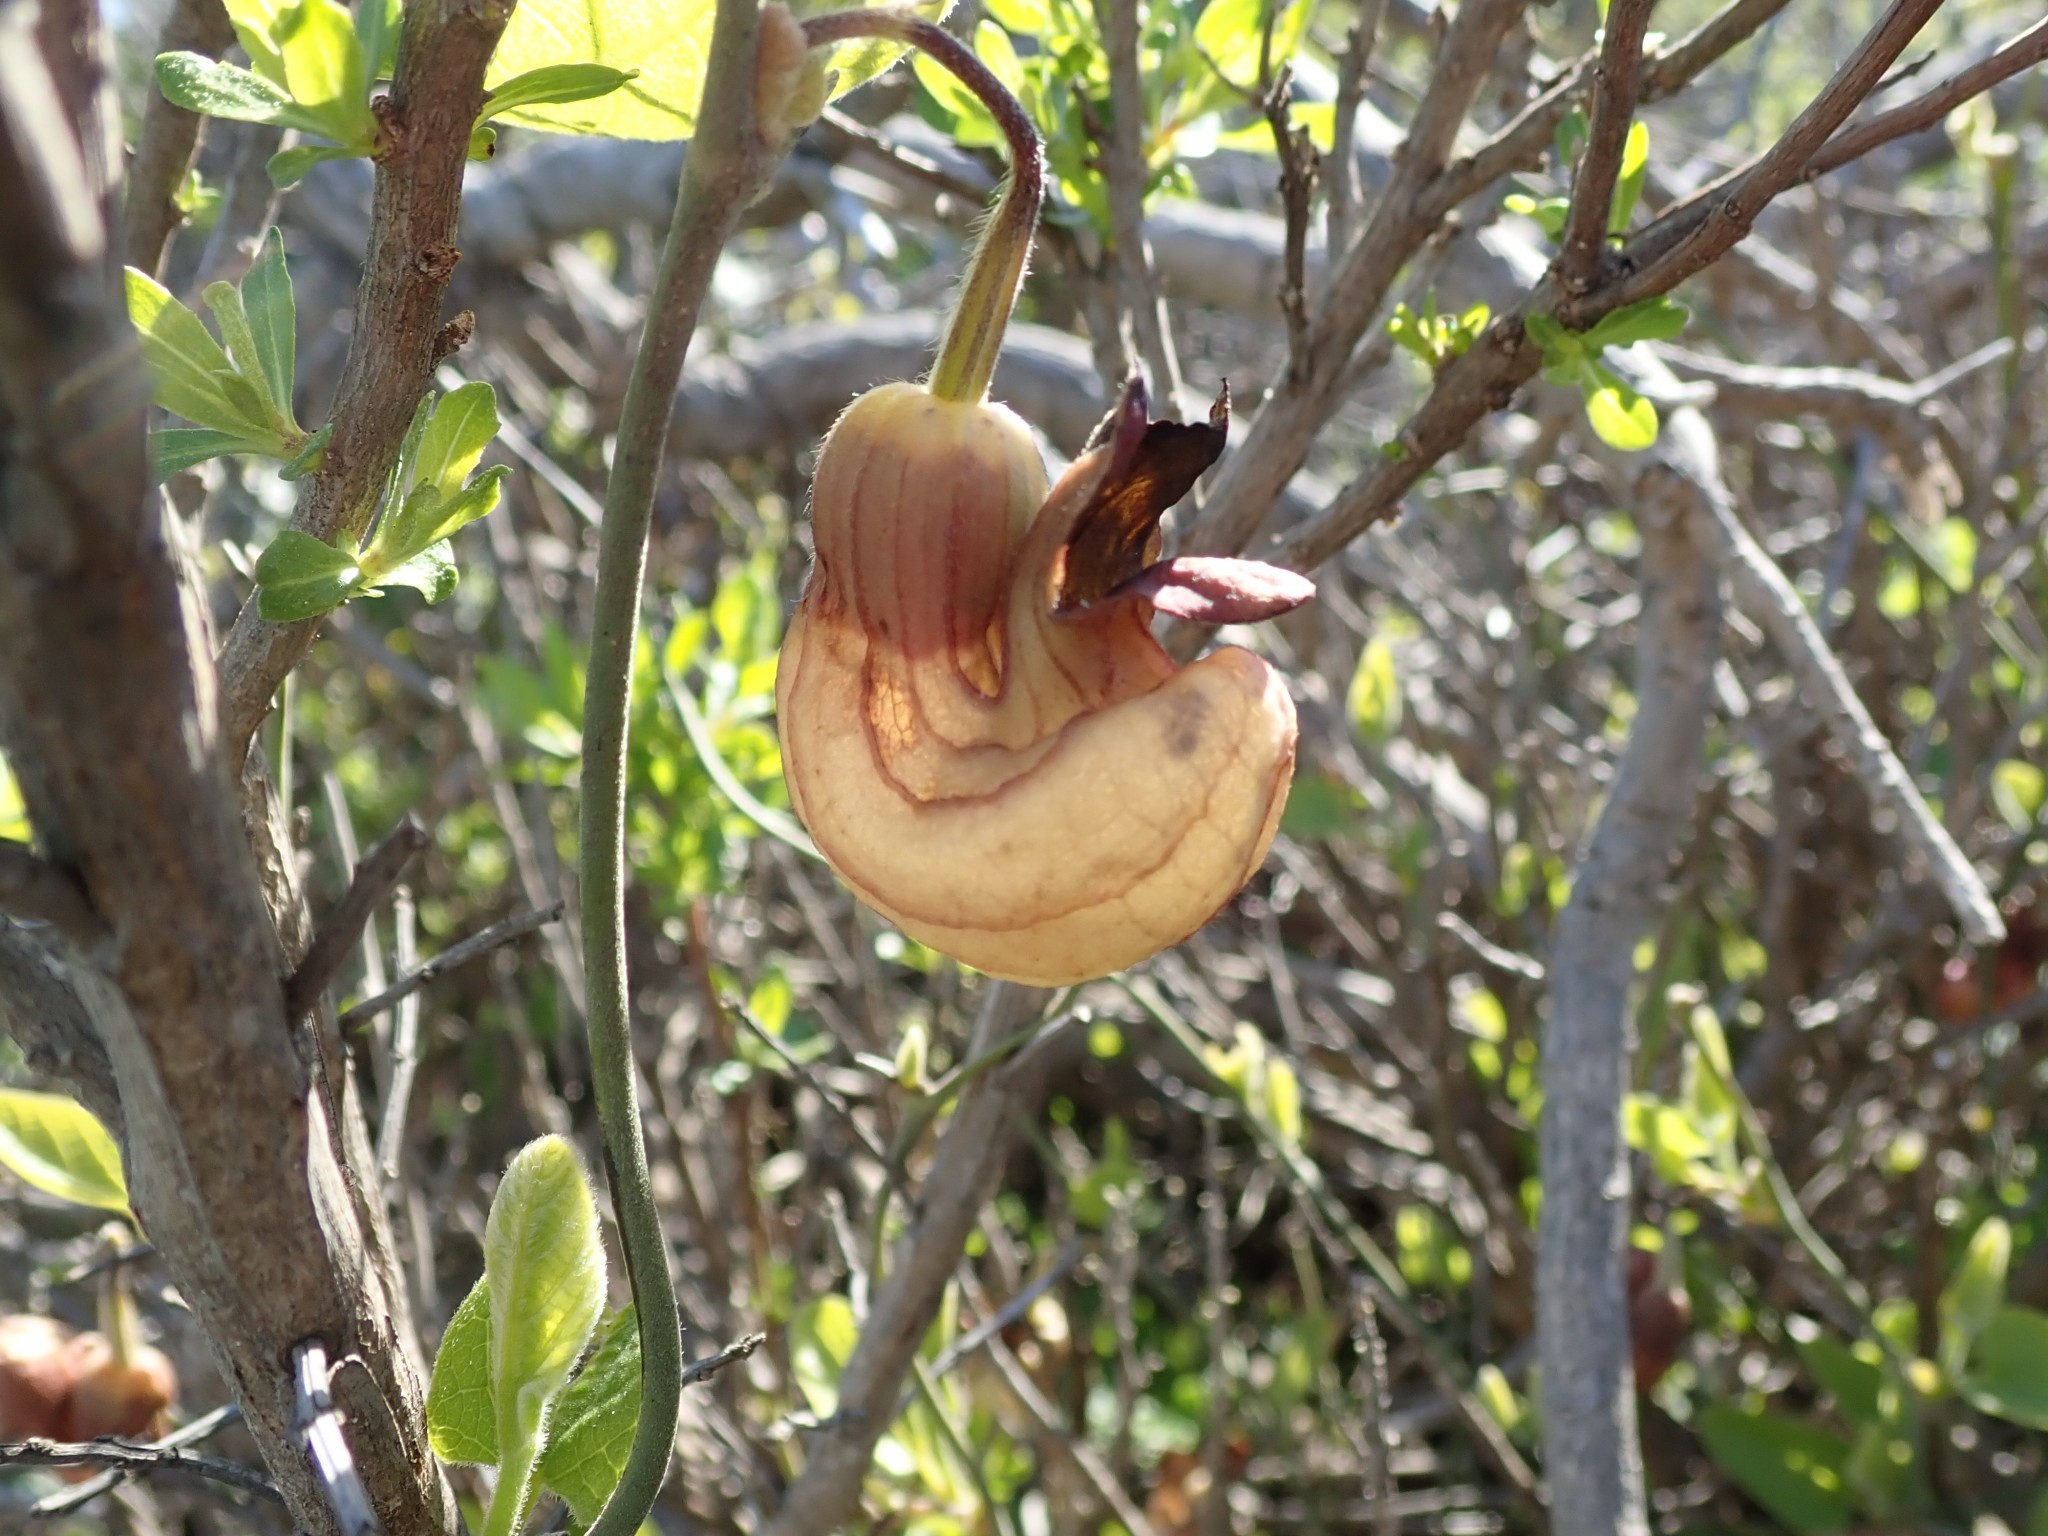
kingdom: Plantae
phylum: Tracheophyta
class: Magnoliopsida
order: Piperales
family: Aristolochiaceae
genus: Isotrema
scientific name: Isotrema californicum
